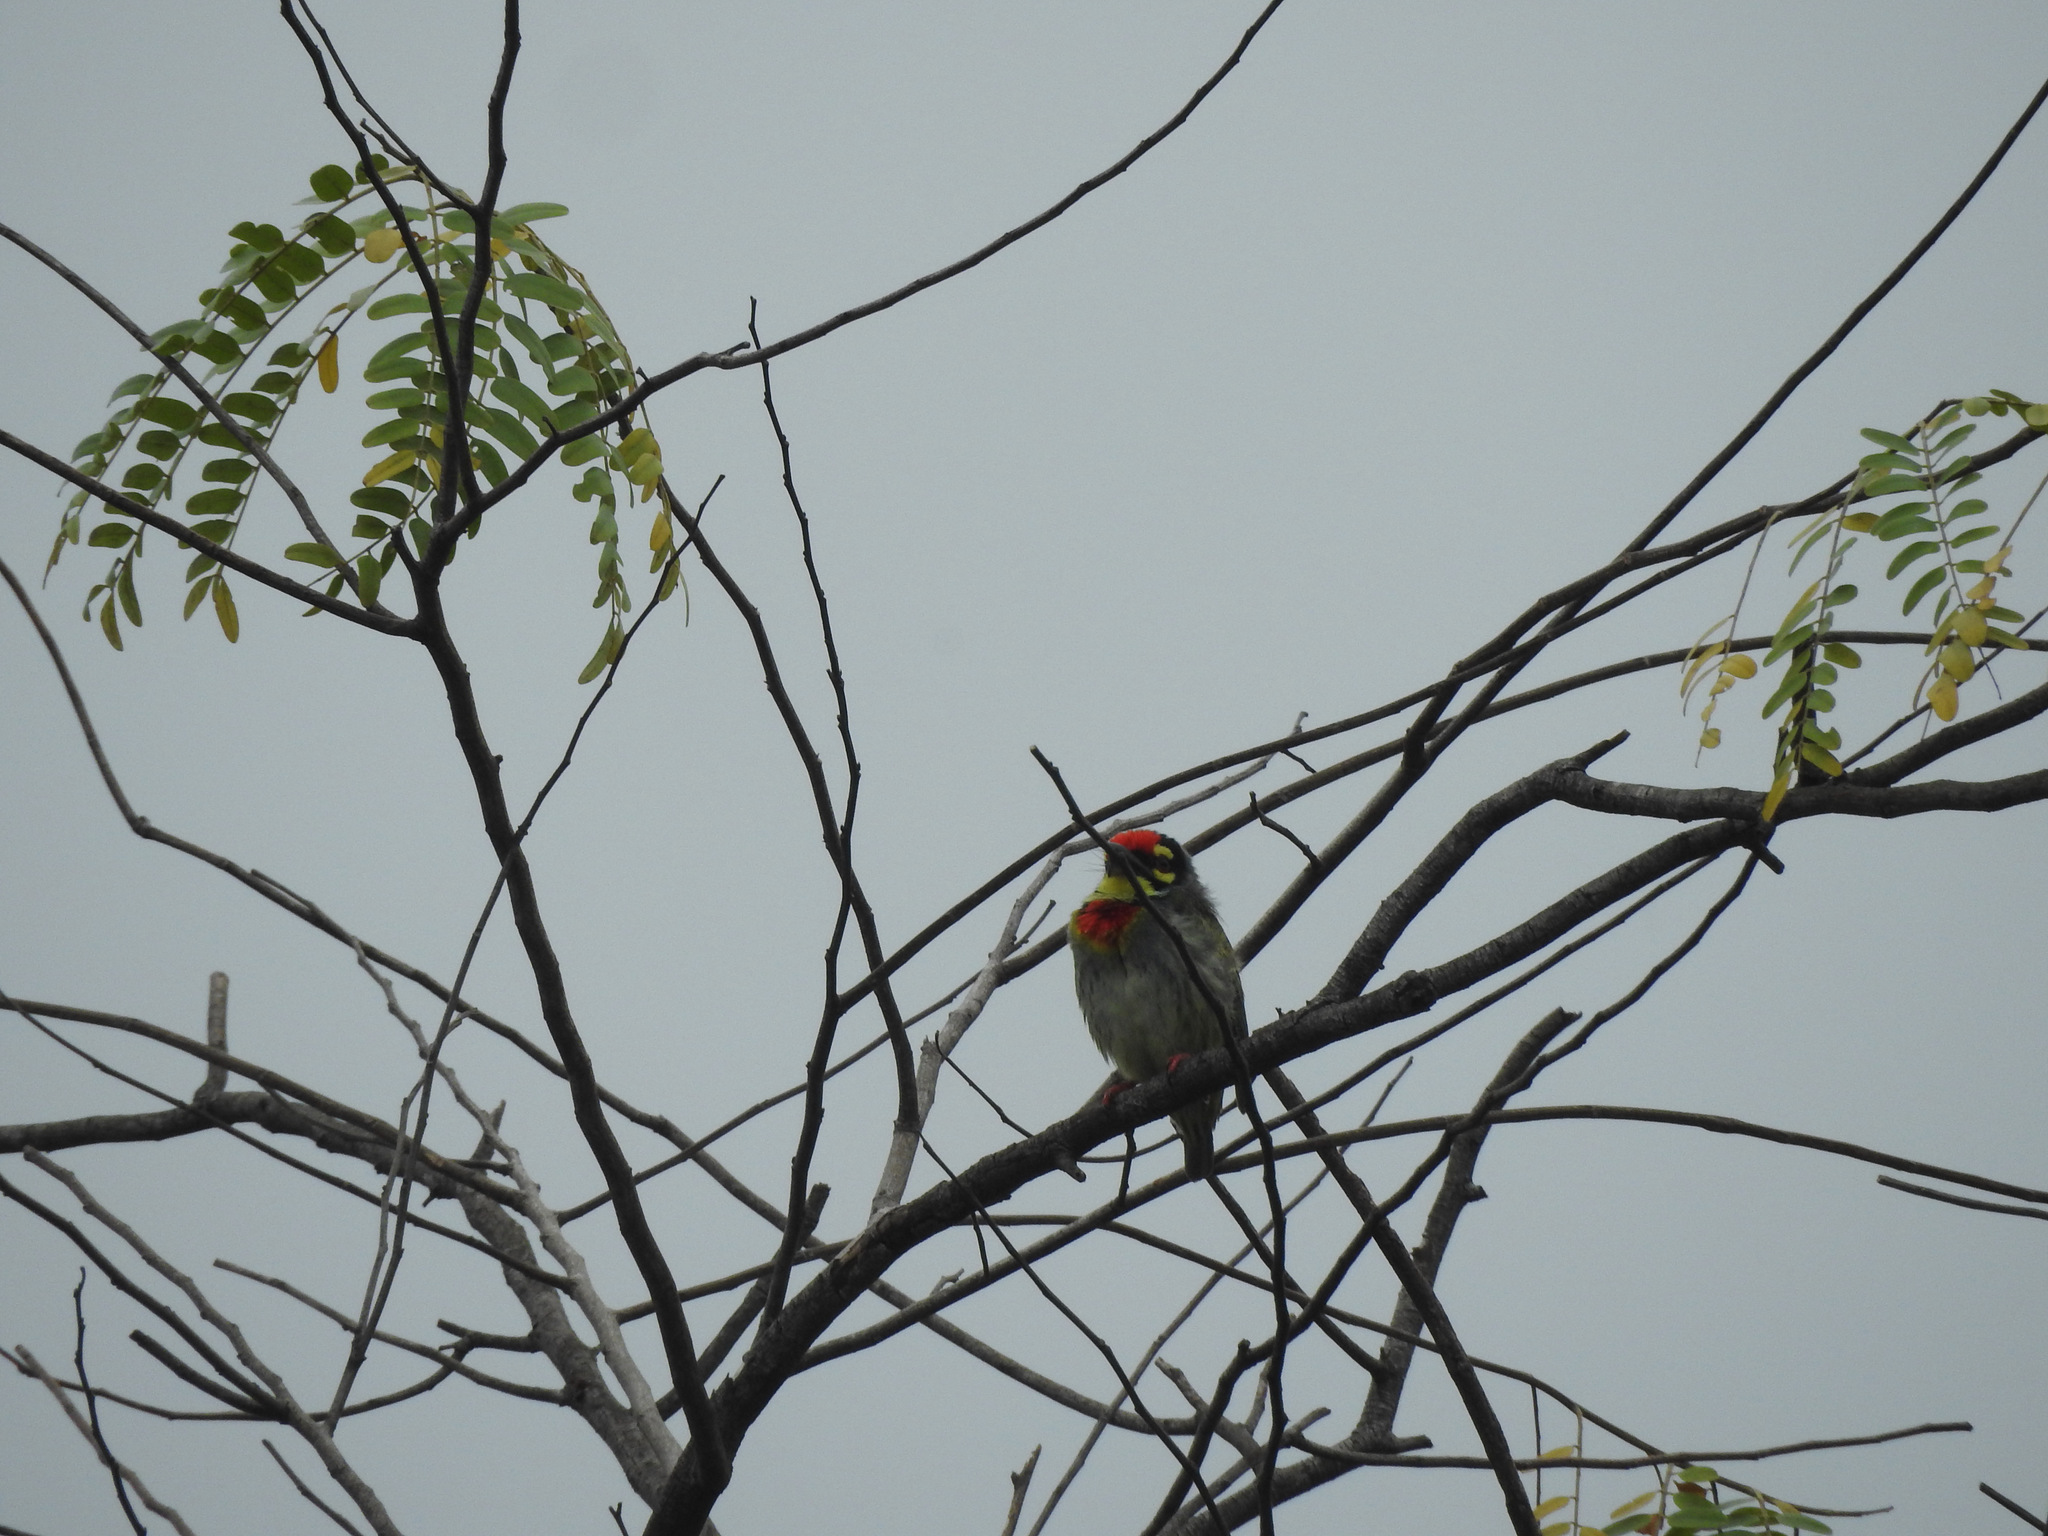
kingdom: Animalia
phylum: Chordata
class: Aves
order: Piciformes
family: Megalaimidae
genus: Psilopogon
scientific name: Psilopogon haemacephalus
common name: Coppersmith barbet
